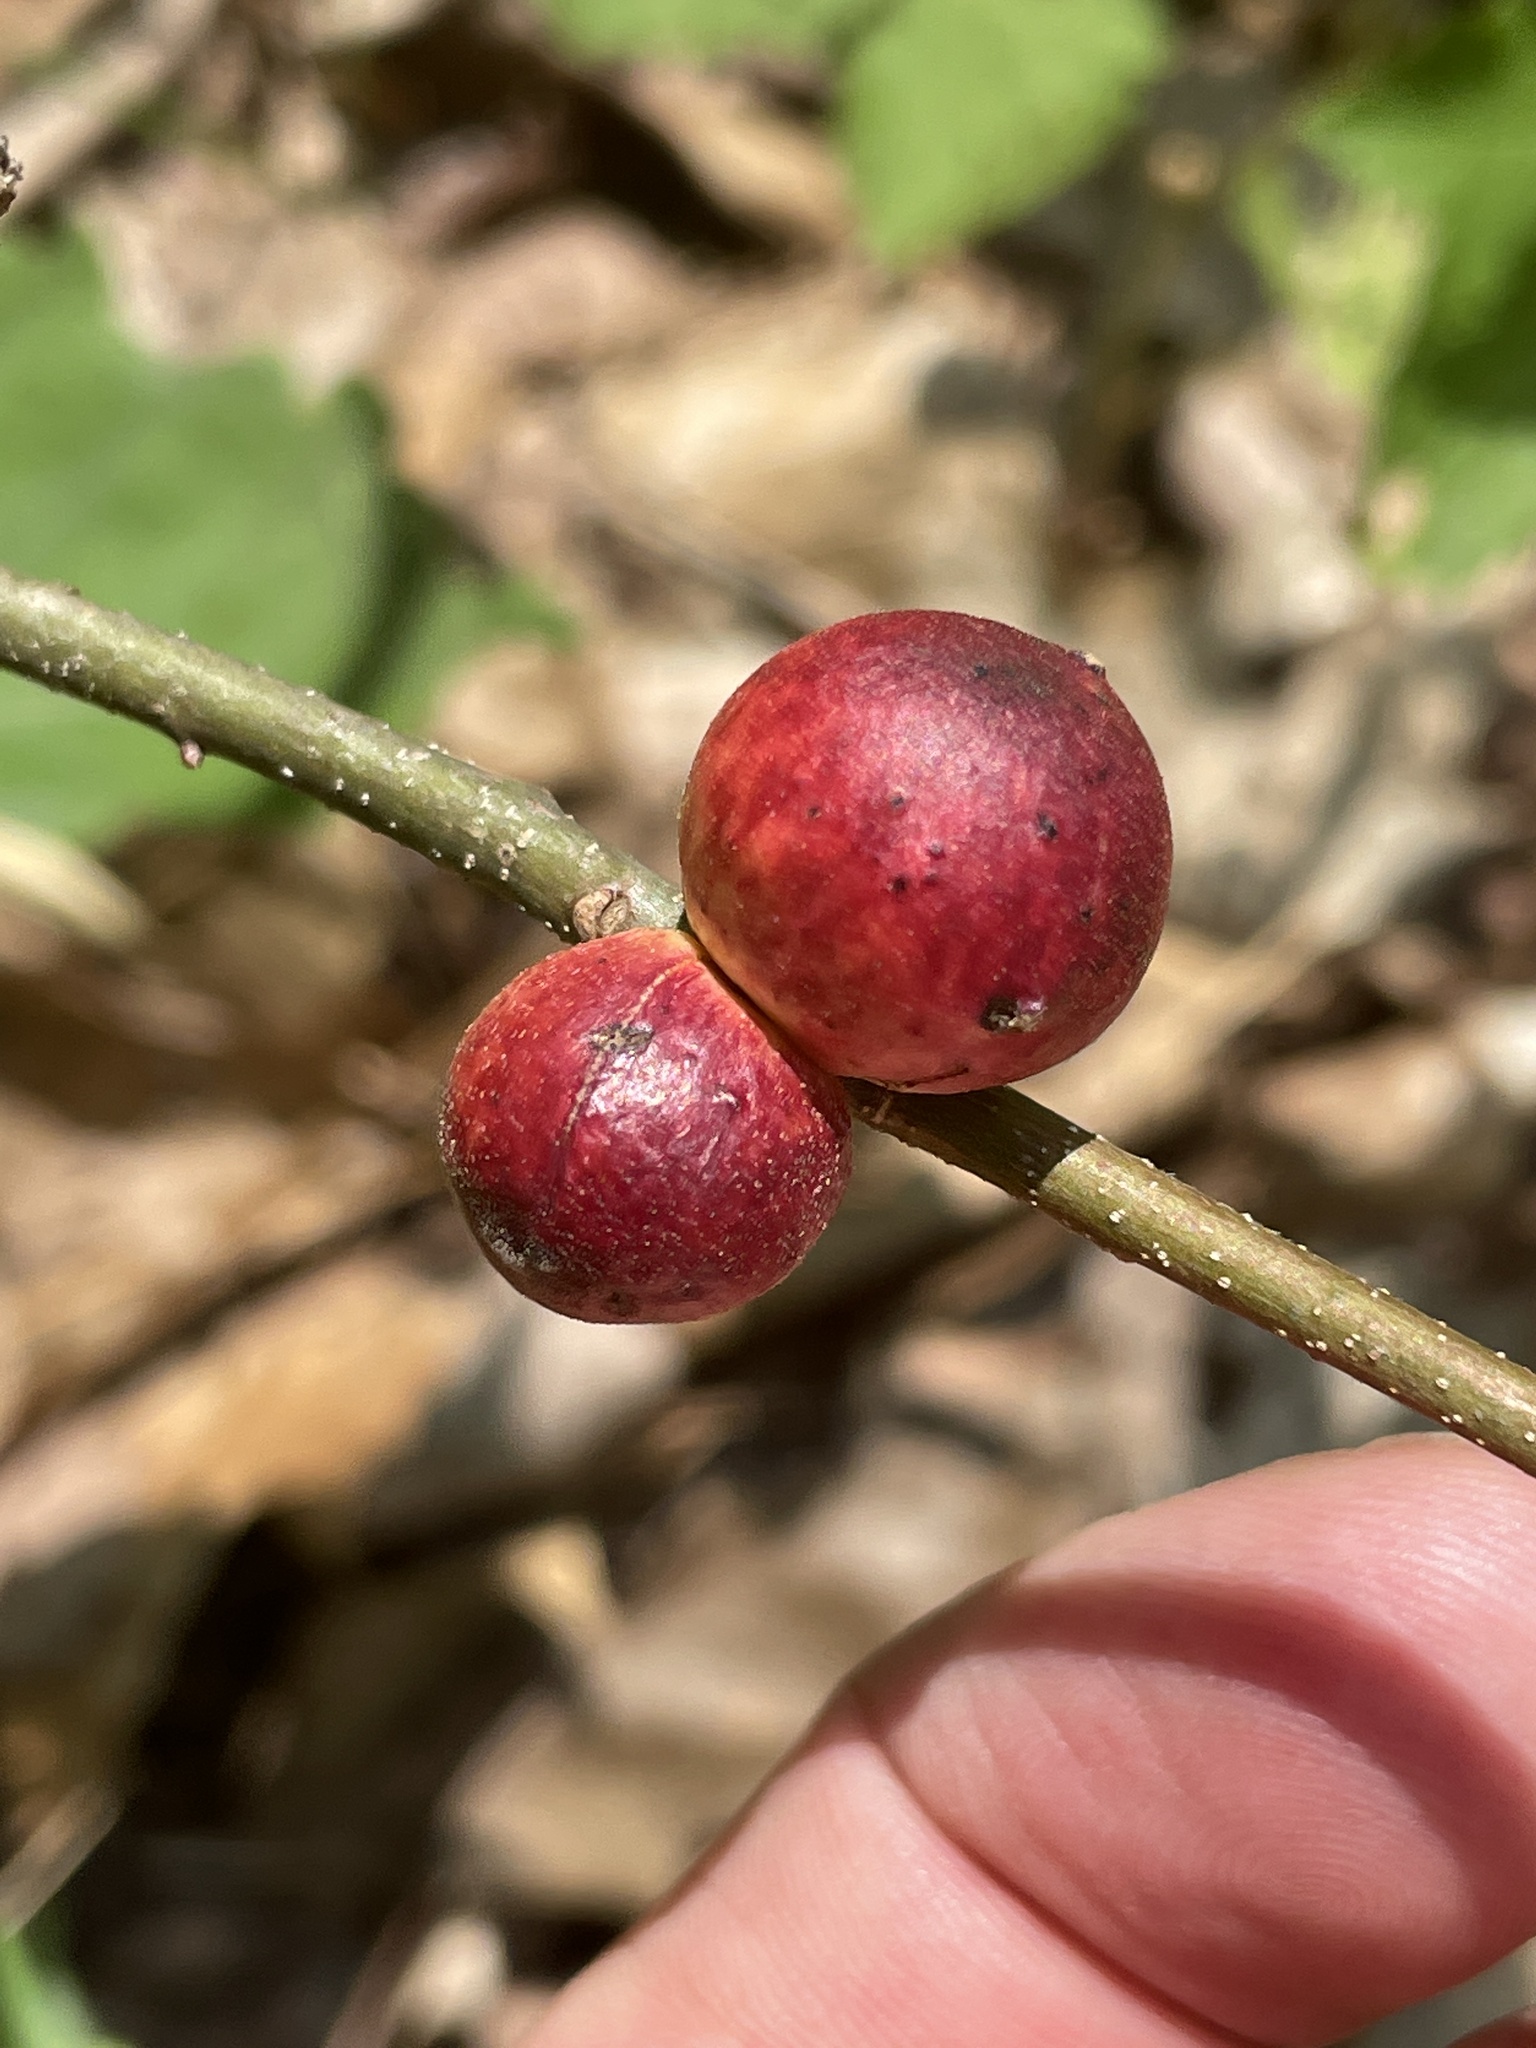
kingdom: Animalia
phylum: Arthropoda
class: Insecta
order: Hymenoptera
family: Cynipidae
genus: Disholcaspis
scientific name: Disholcaspis quercusglobulus
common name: Round bullet gall wasp
